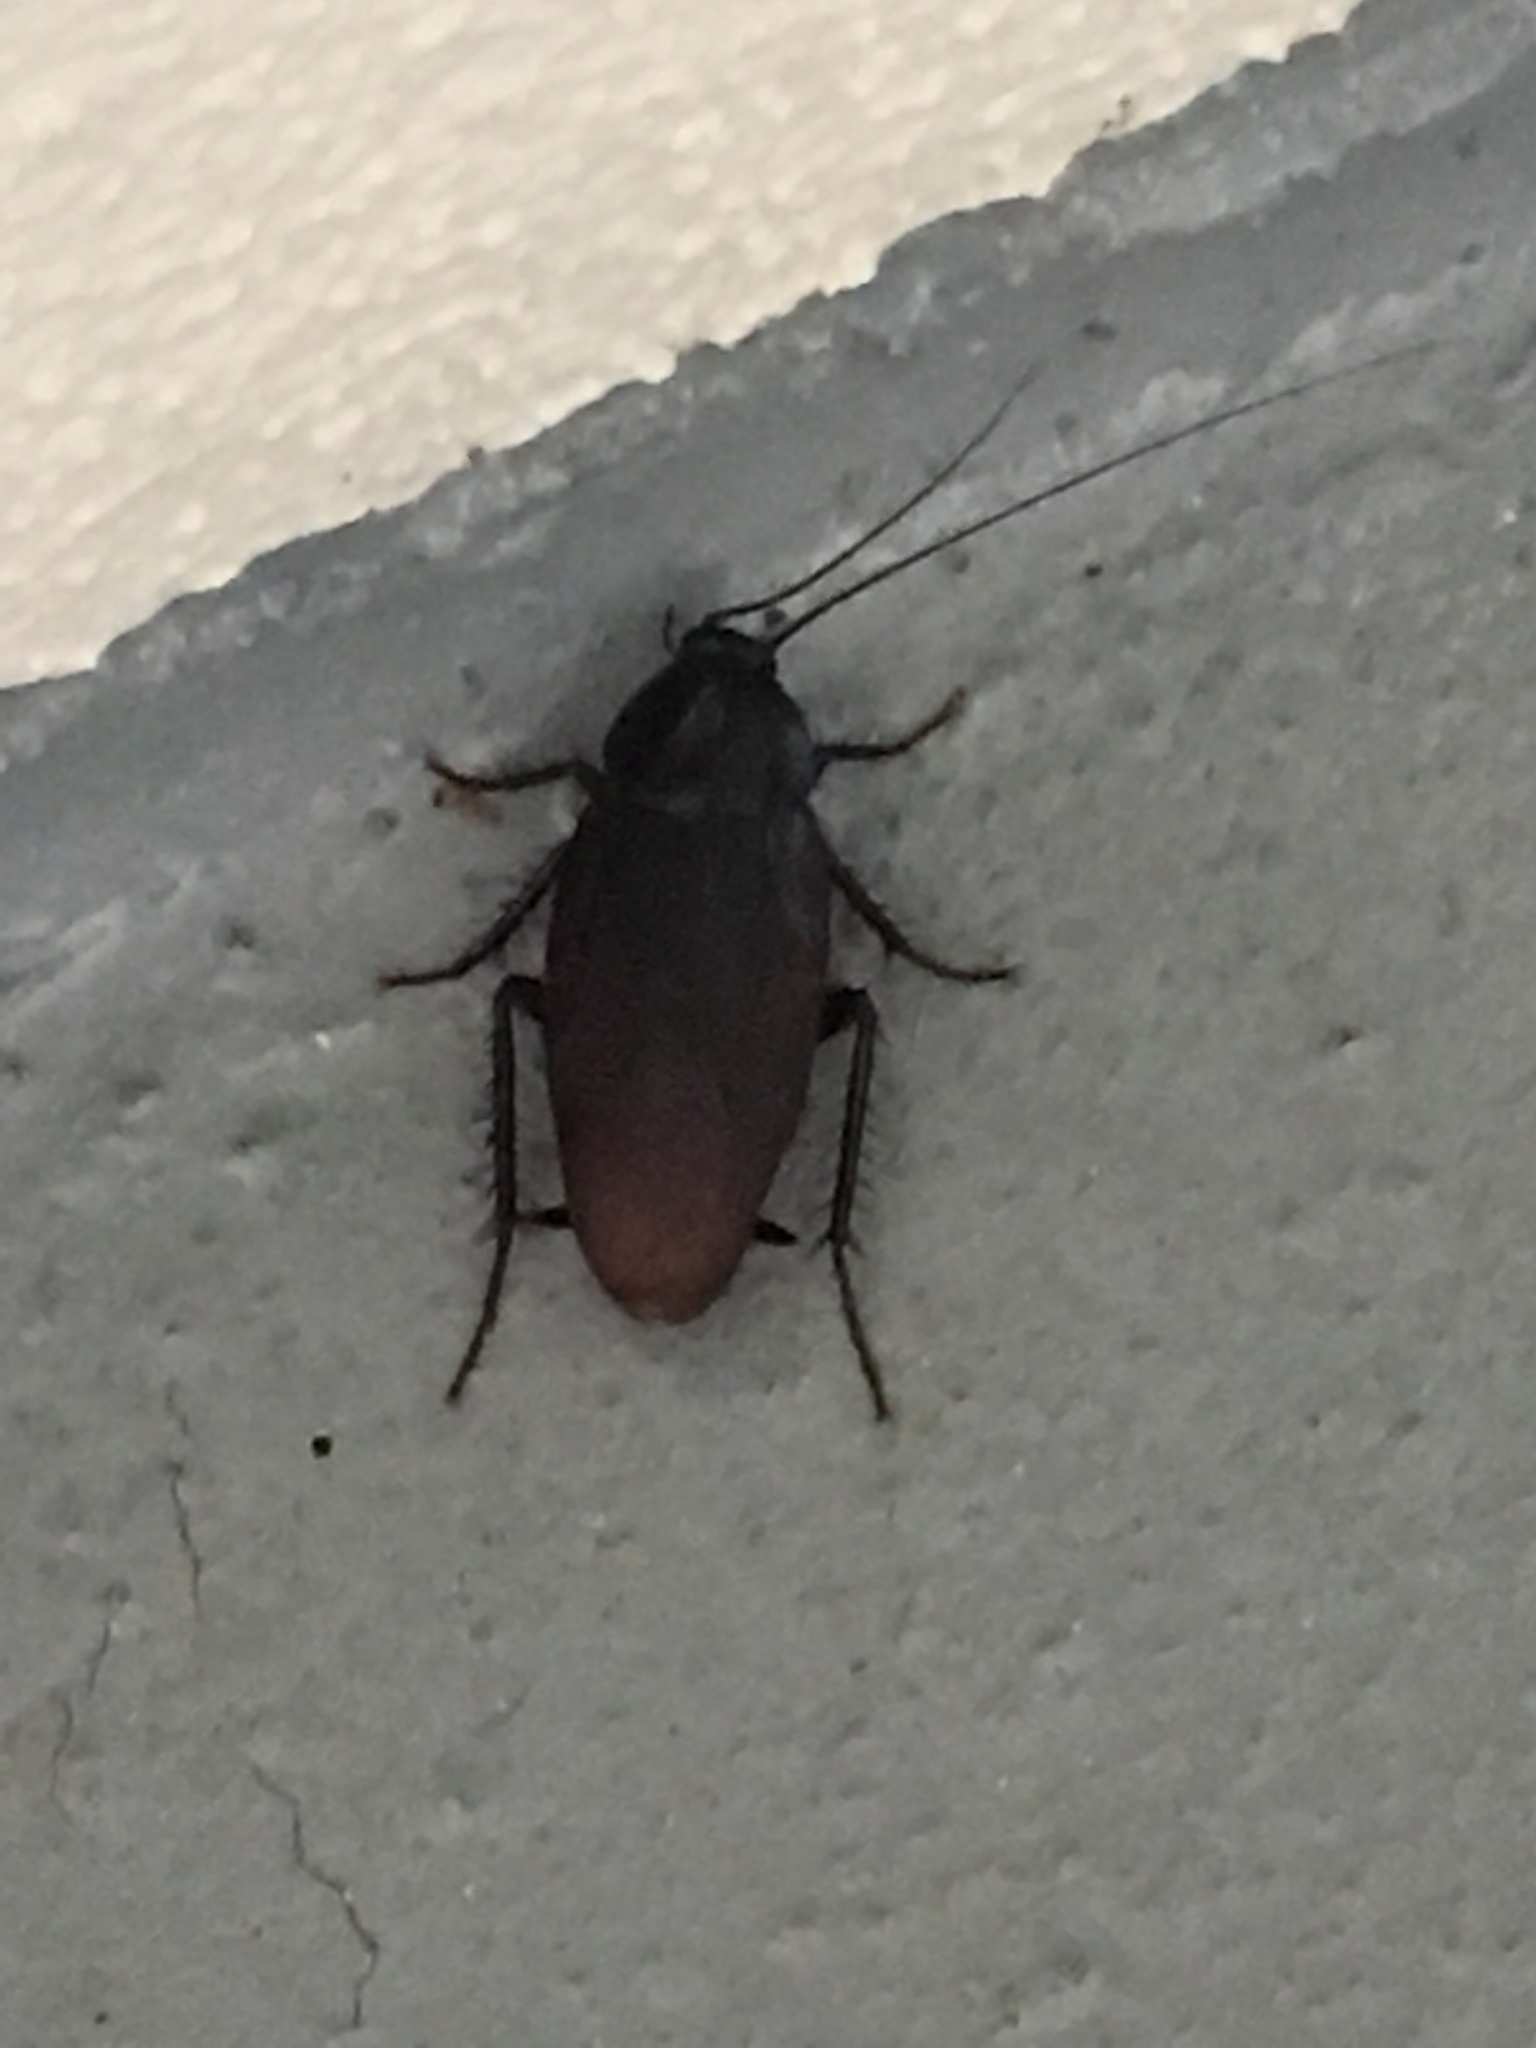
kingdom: Animalia
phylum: Arthropoda
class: Insecta
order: Blattodea
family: Blattidae
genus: Periplaneta
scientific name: Periplaneta fuliginosa
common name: Smokeybrown cockroad
